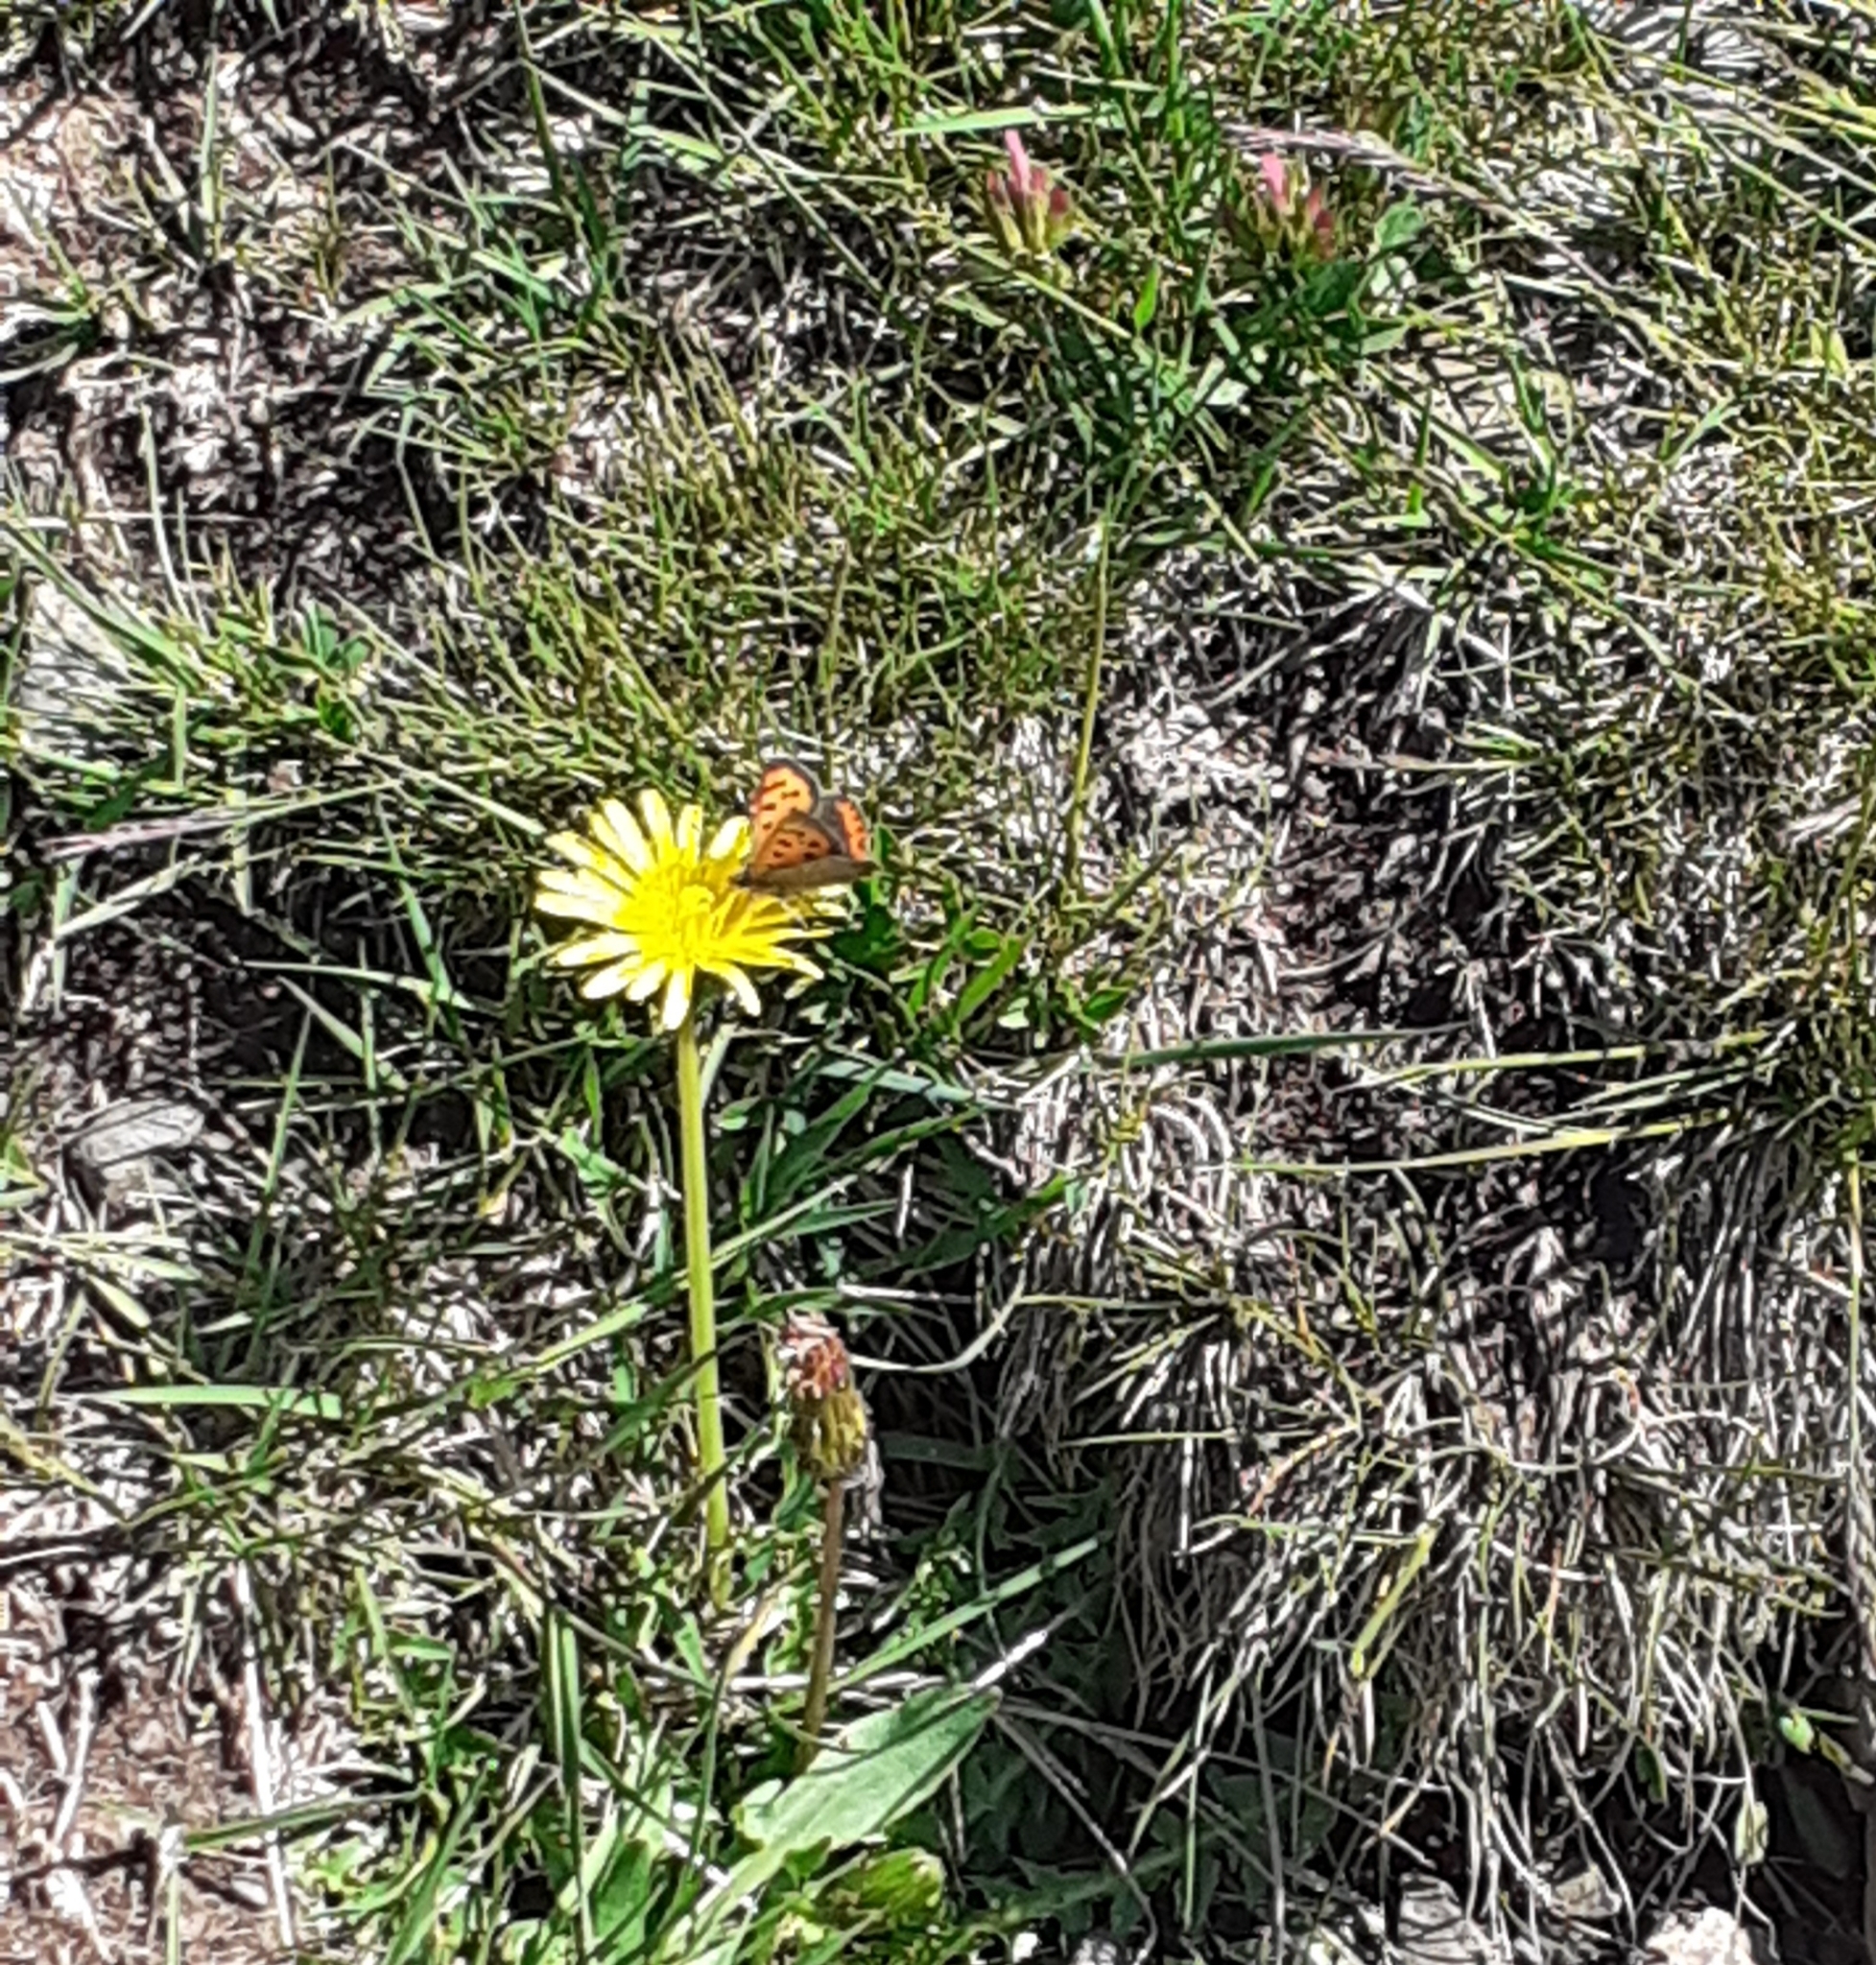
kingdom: Animalia
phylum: Arthropoda
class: Insecta
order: Lepidoptera
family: Lycaenidae
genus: Lycaena
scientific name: Lycaena phlaeas
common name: Small copper
